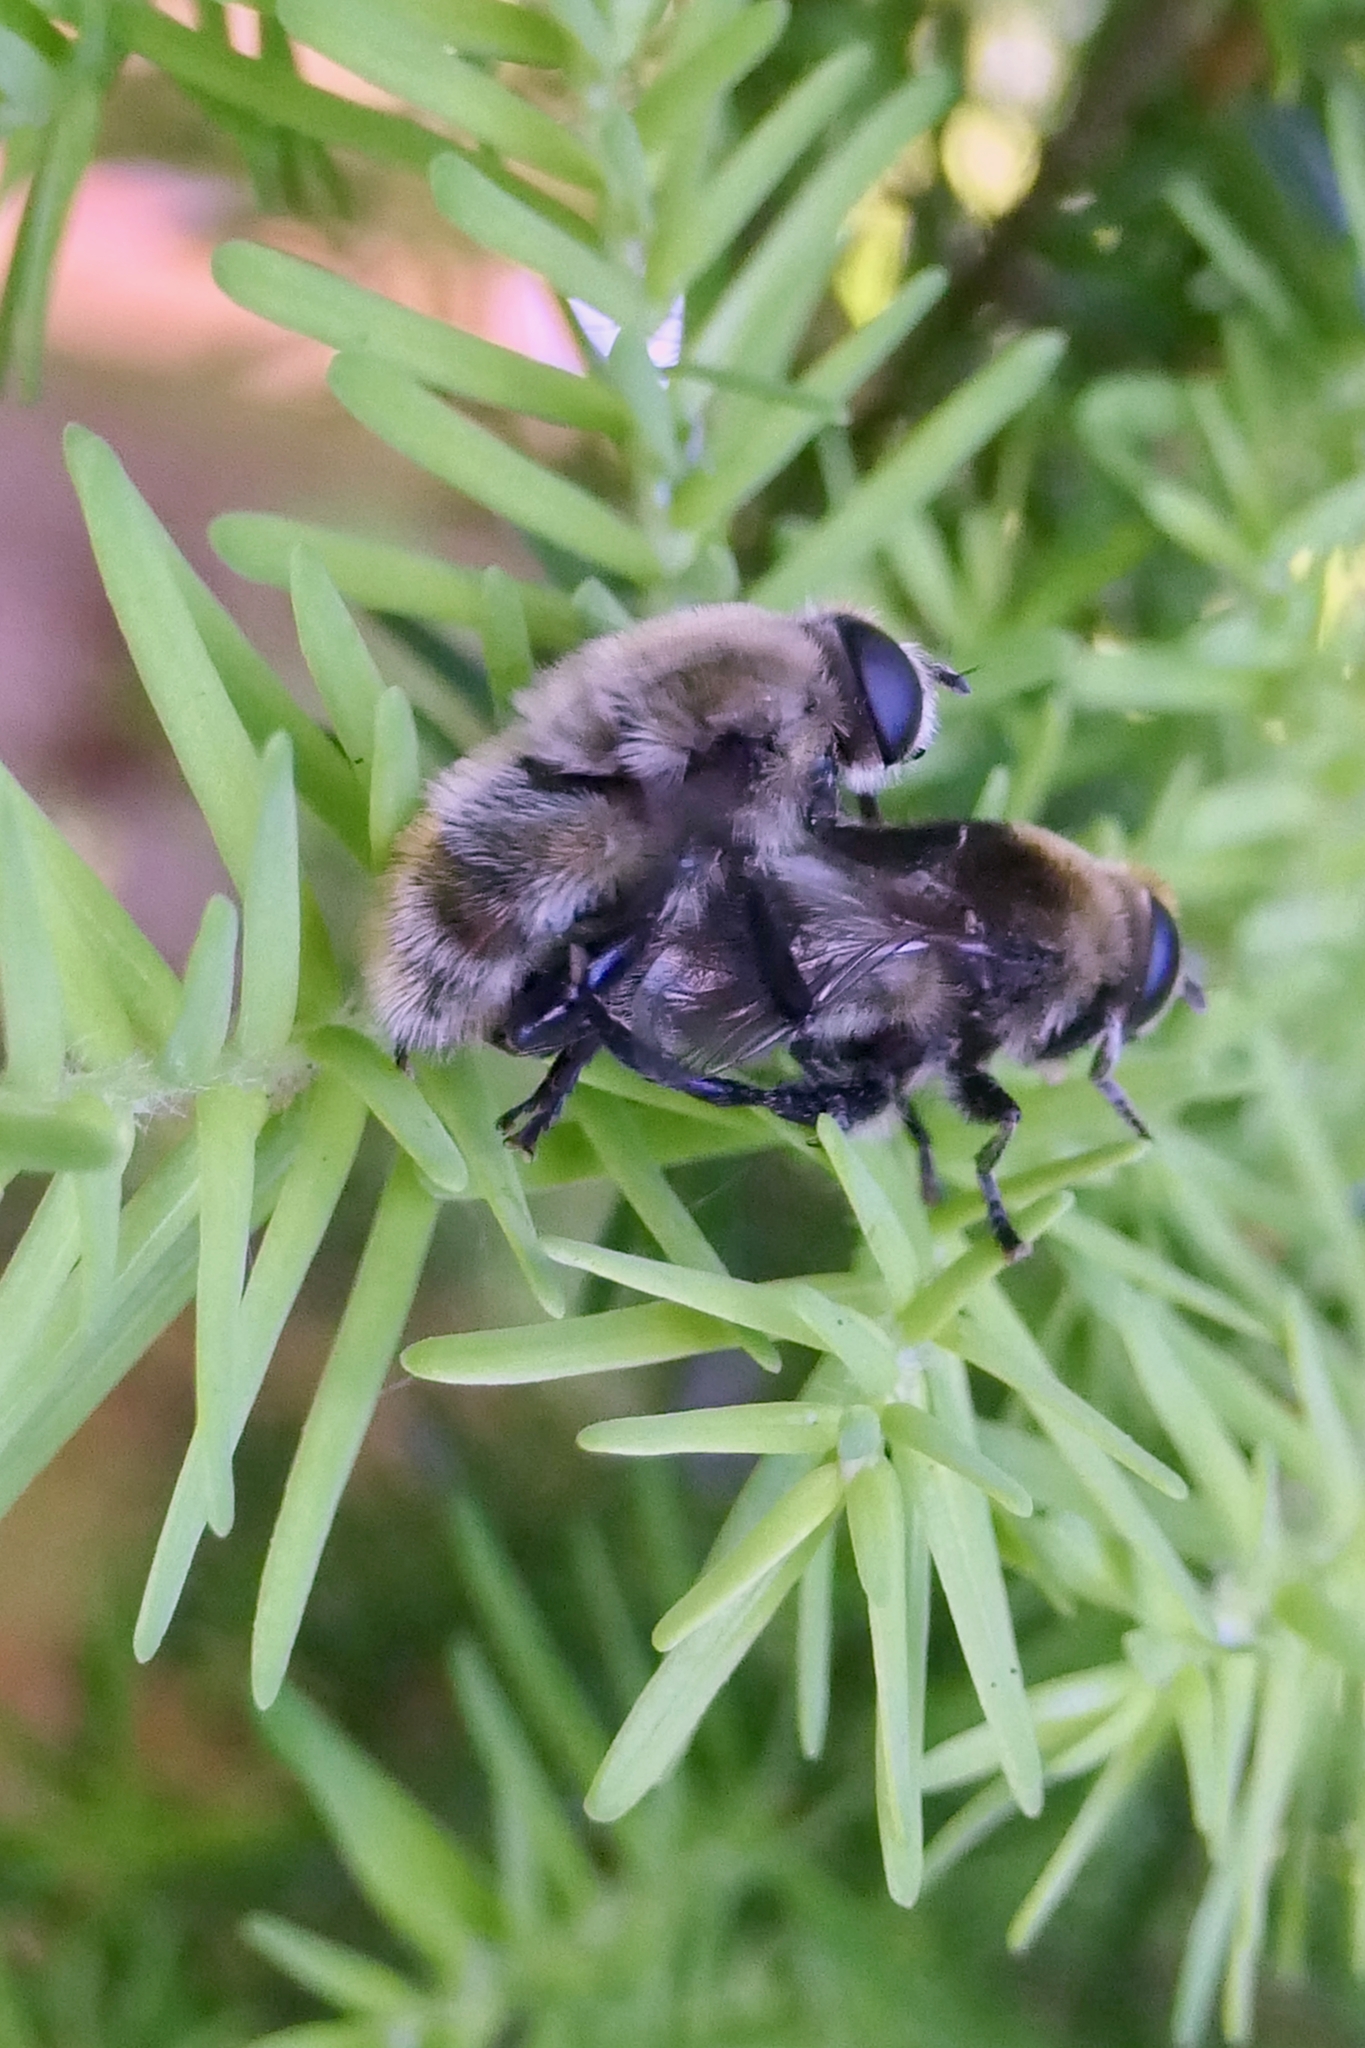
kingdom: Animalia
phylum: Arthropoda
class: Insecta
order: Diptera
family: Syrphidae
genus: Merodon
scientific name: Merodon equestris
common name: Greater bulb-fly
